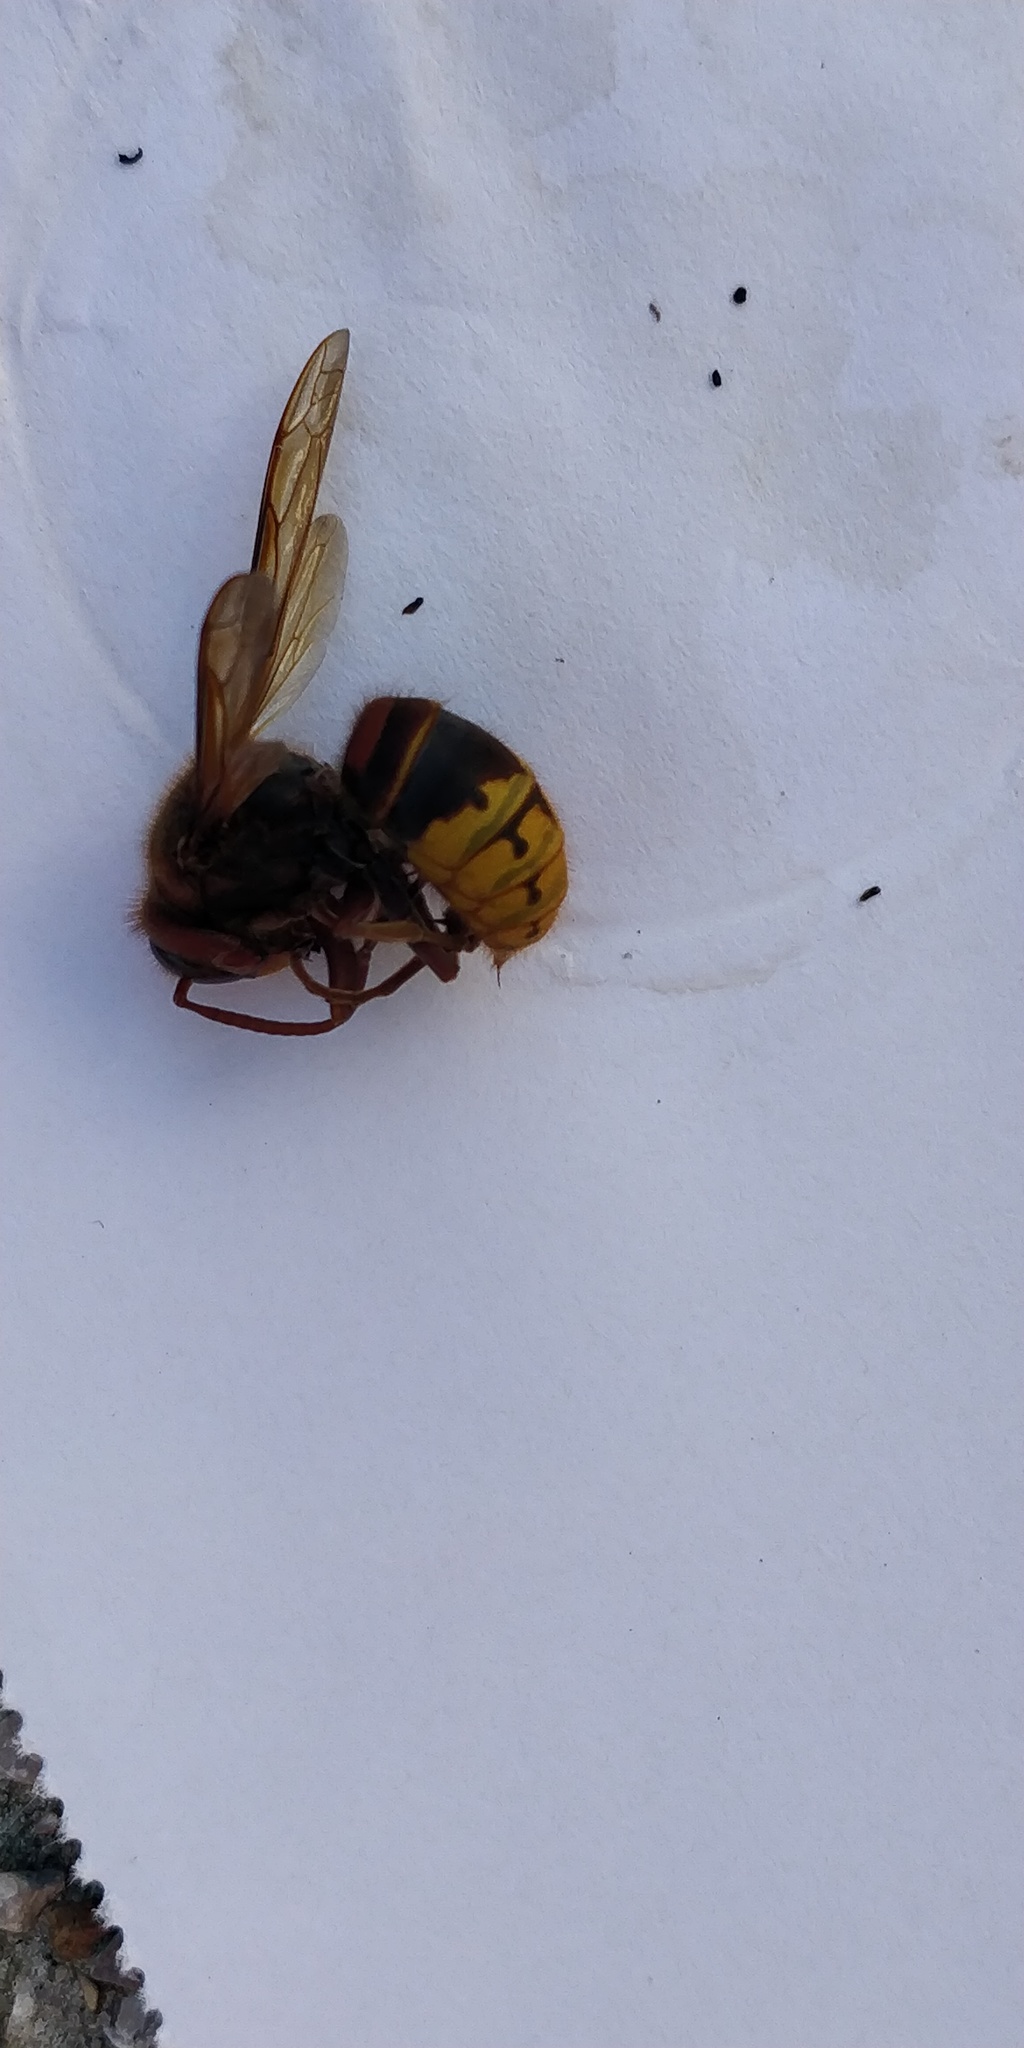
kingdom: Animalia
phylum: Arthropoda
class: Insecta
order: Hymenoptera
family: Vespidae
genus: Vespa
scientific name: Vespa crabro
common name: Hornet
